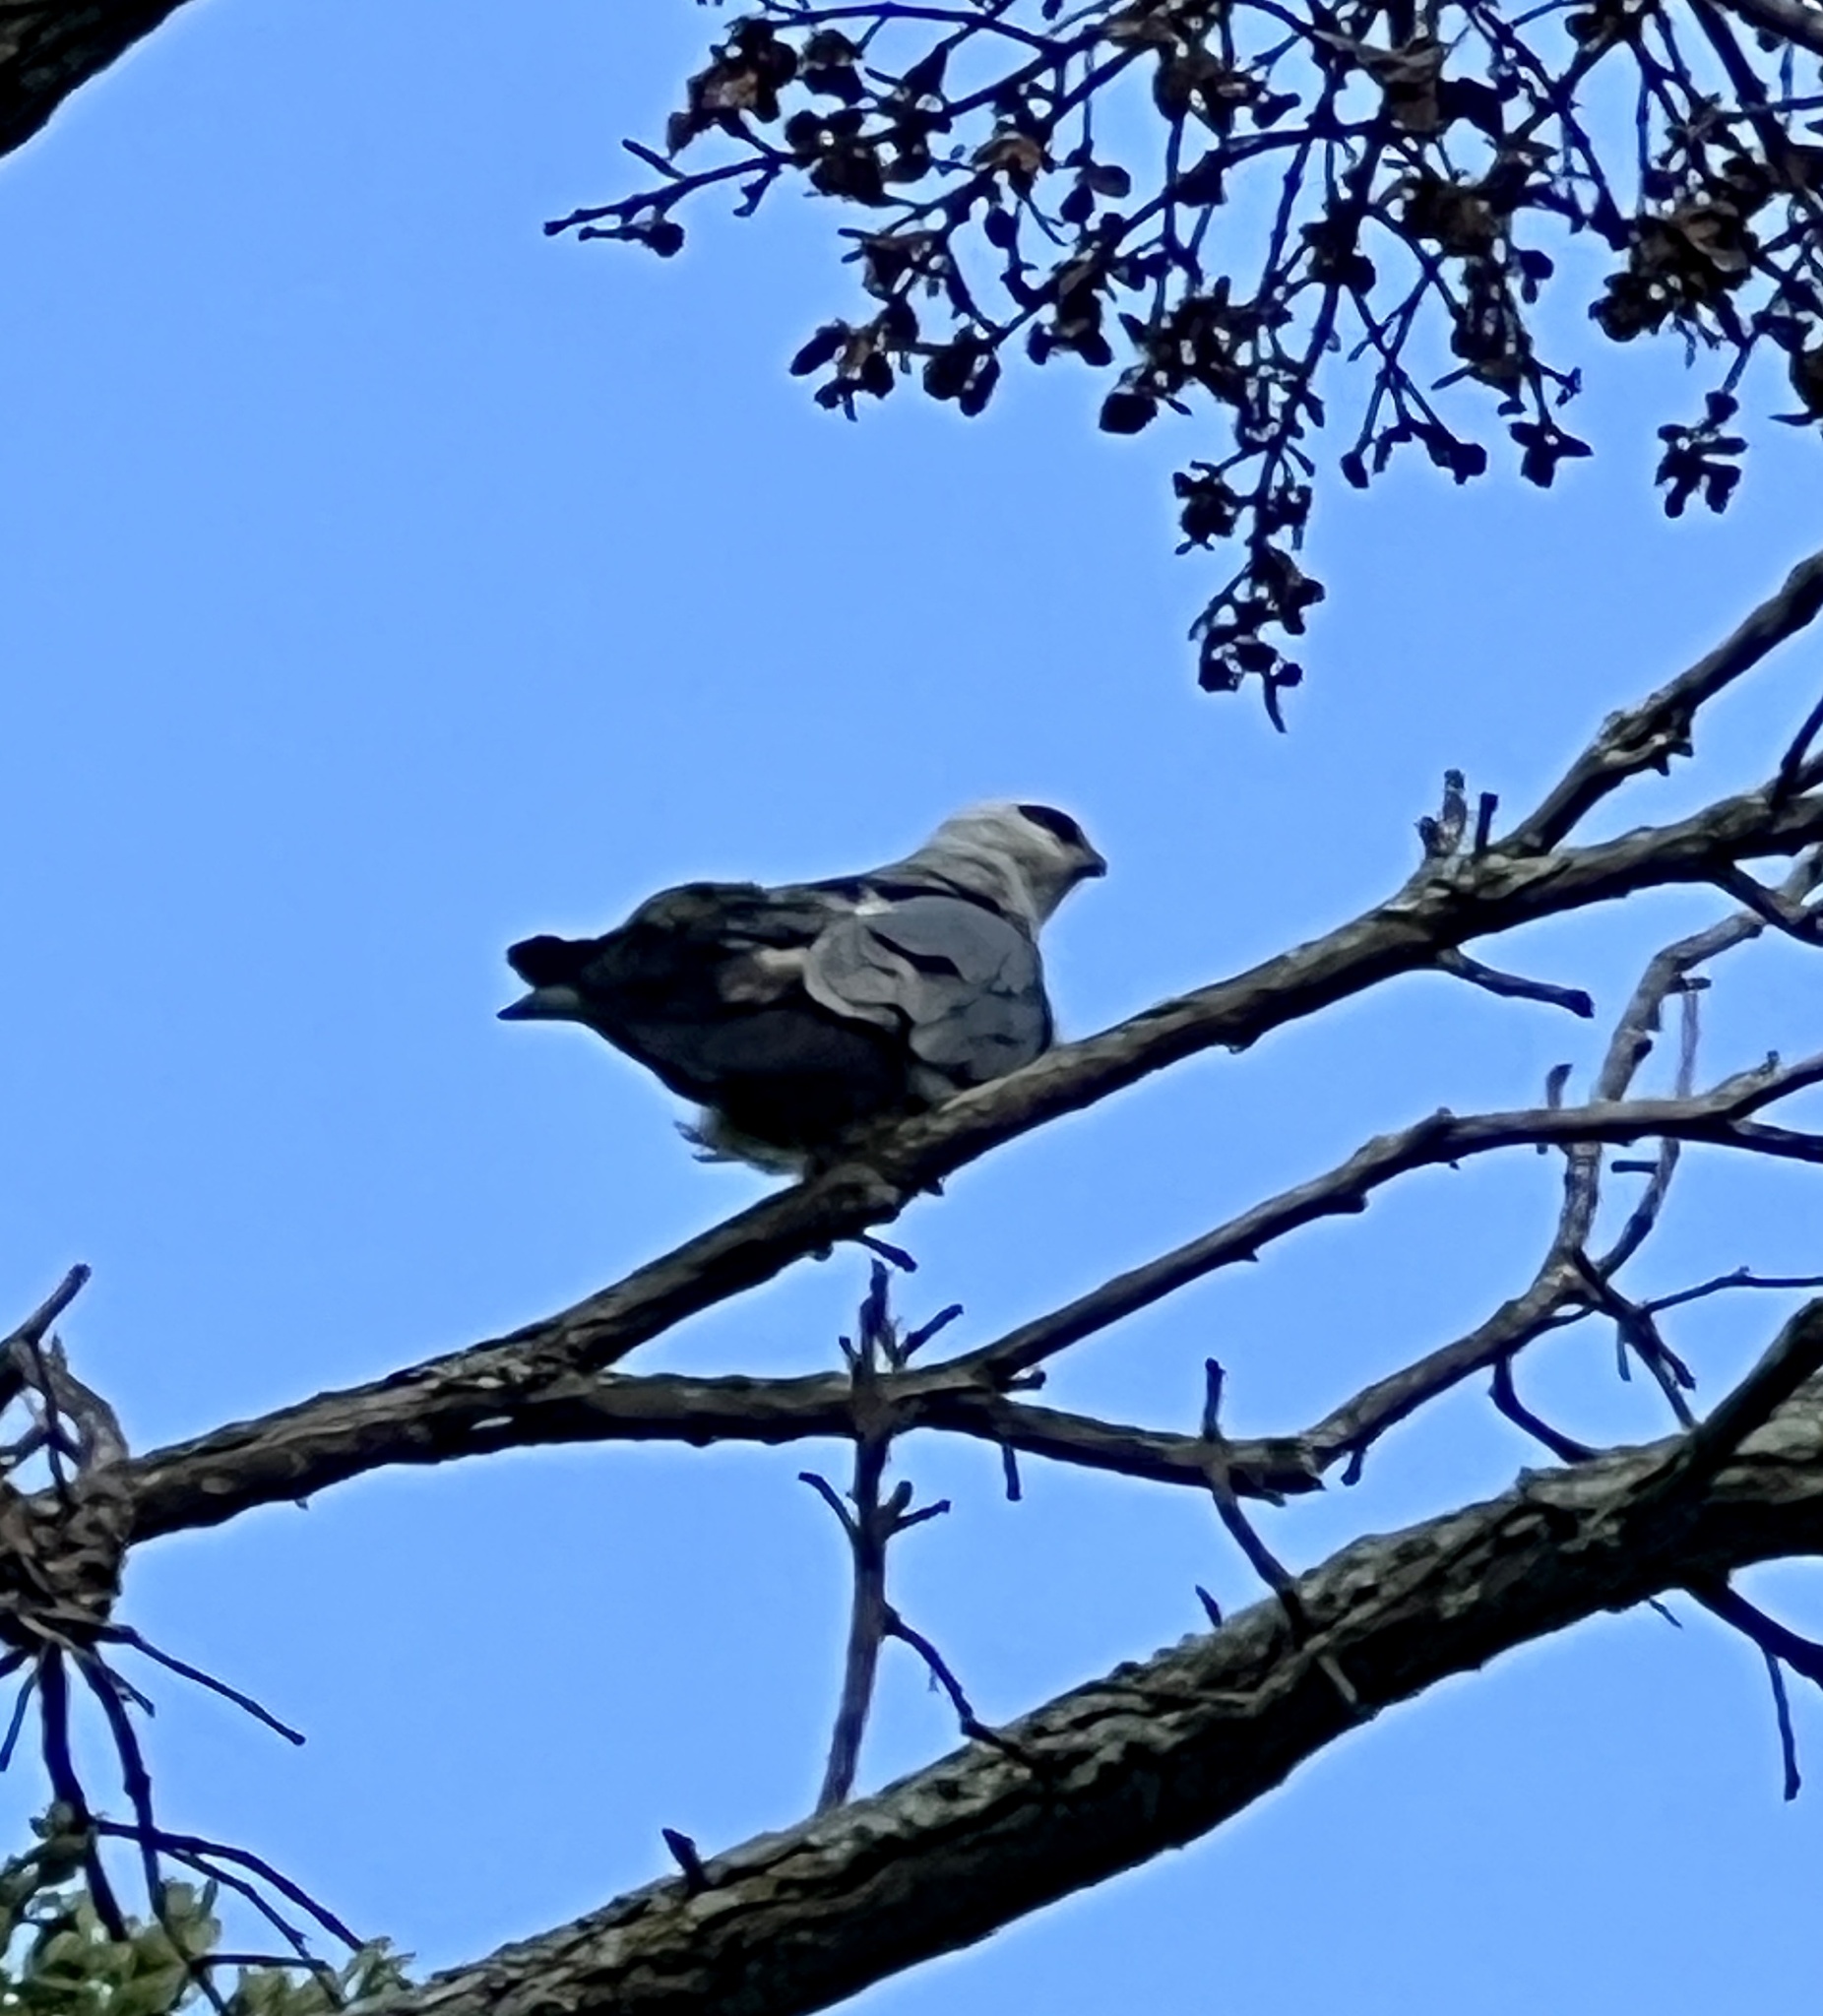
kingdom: Animalia
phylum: Chordata
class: Aves
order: Accipitriformes
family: Accipitridae
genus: Ictinia
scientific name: Ictinia mississippiensis
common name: Mississippi kite
